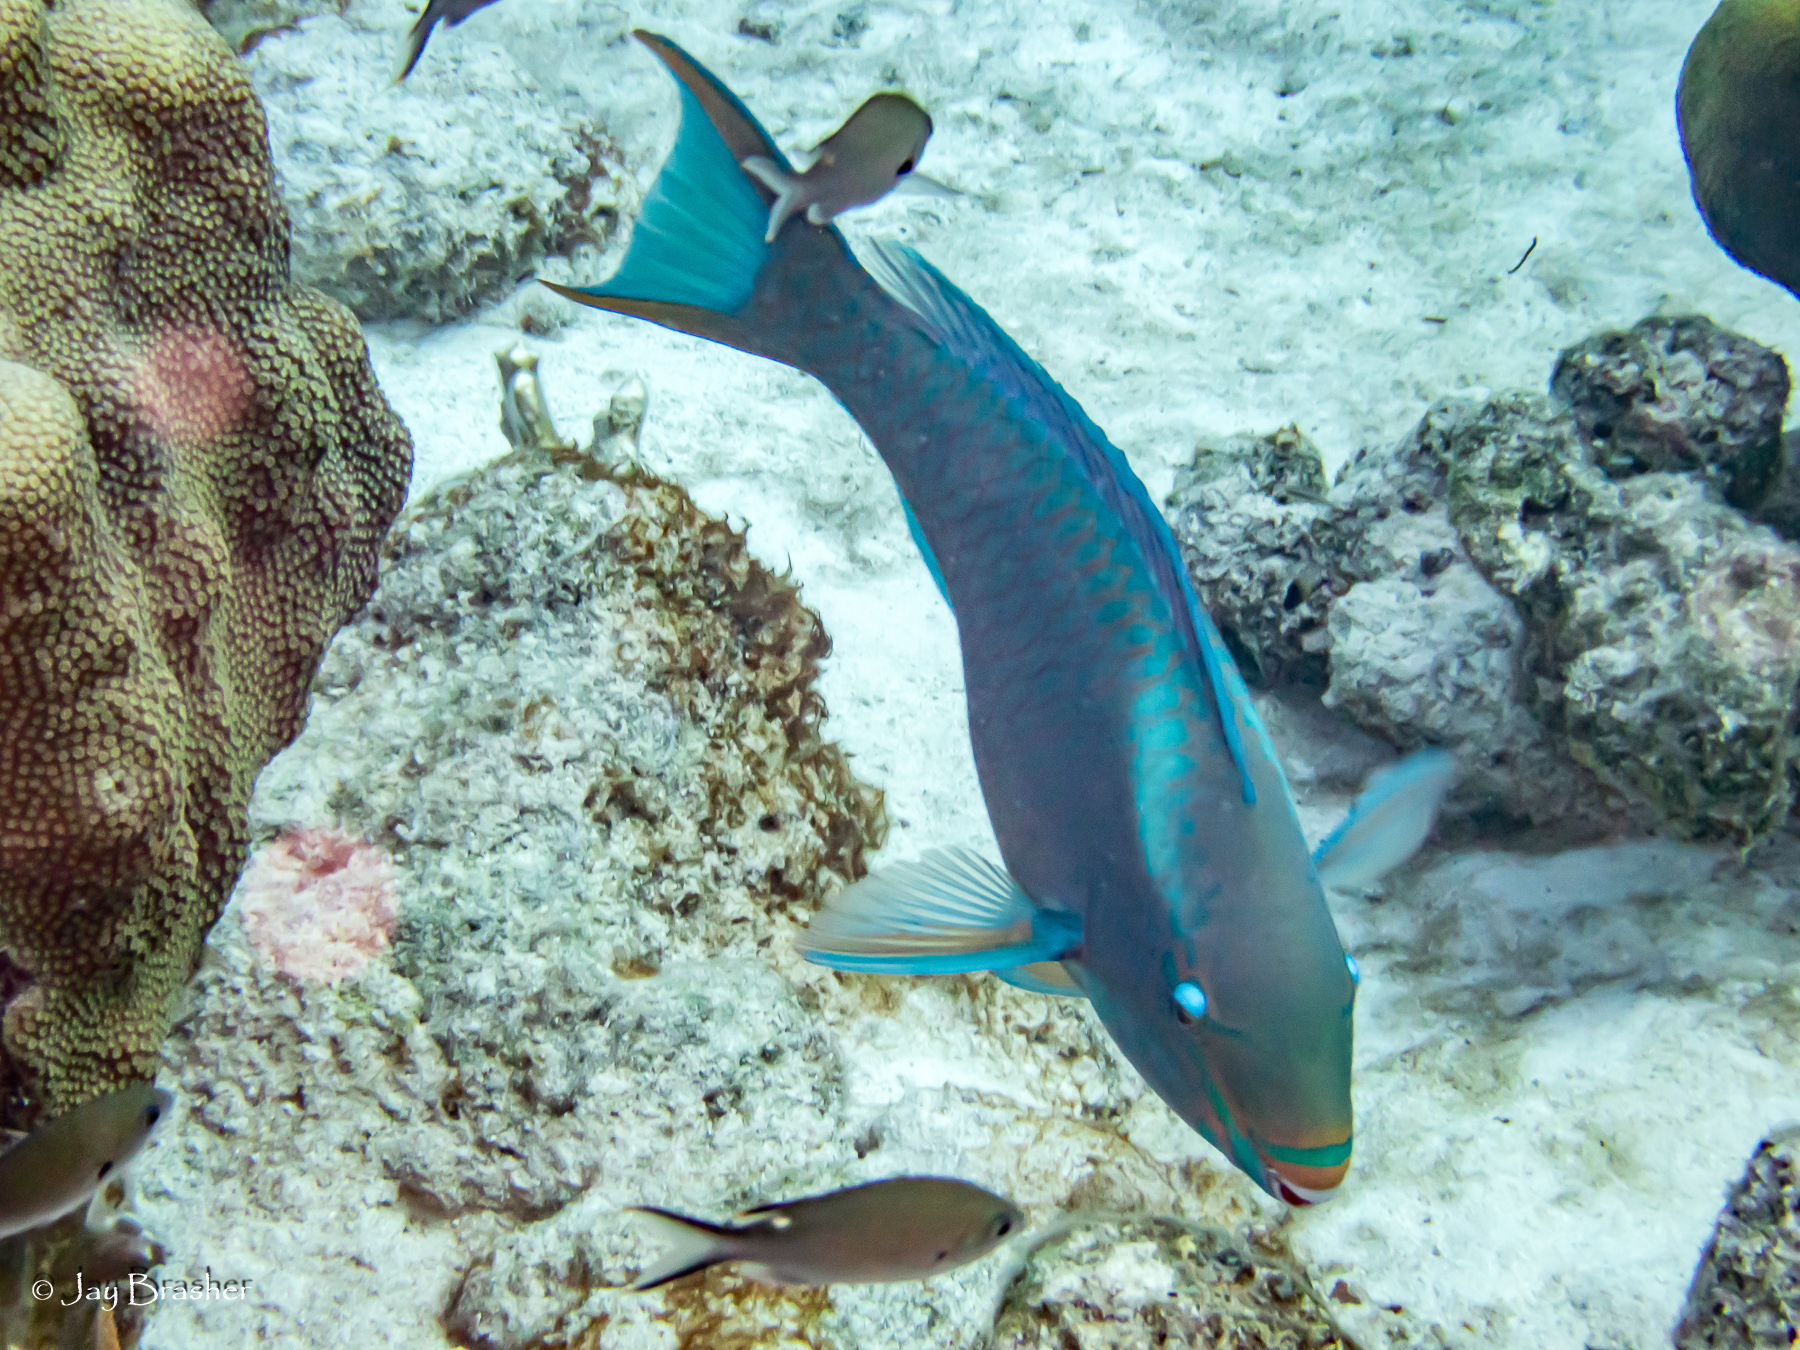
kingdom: Animalia
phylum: Chordata
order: Perciformes
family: Pomacentridae
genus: Chromis
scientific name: Chromis multilineata
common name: Brown chromis
